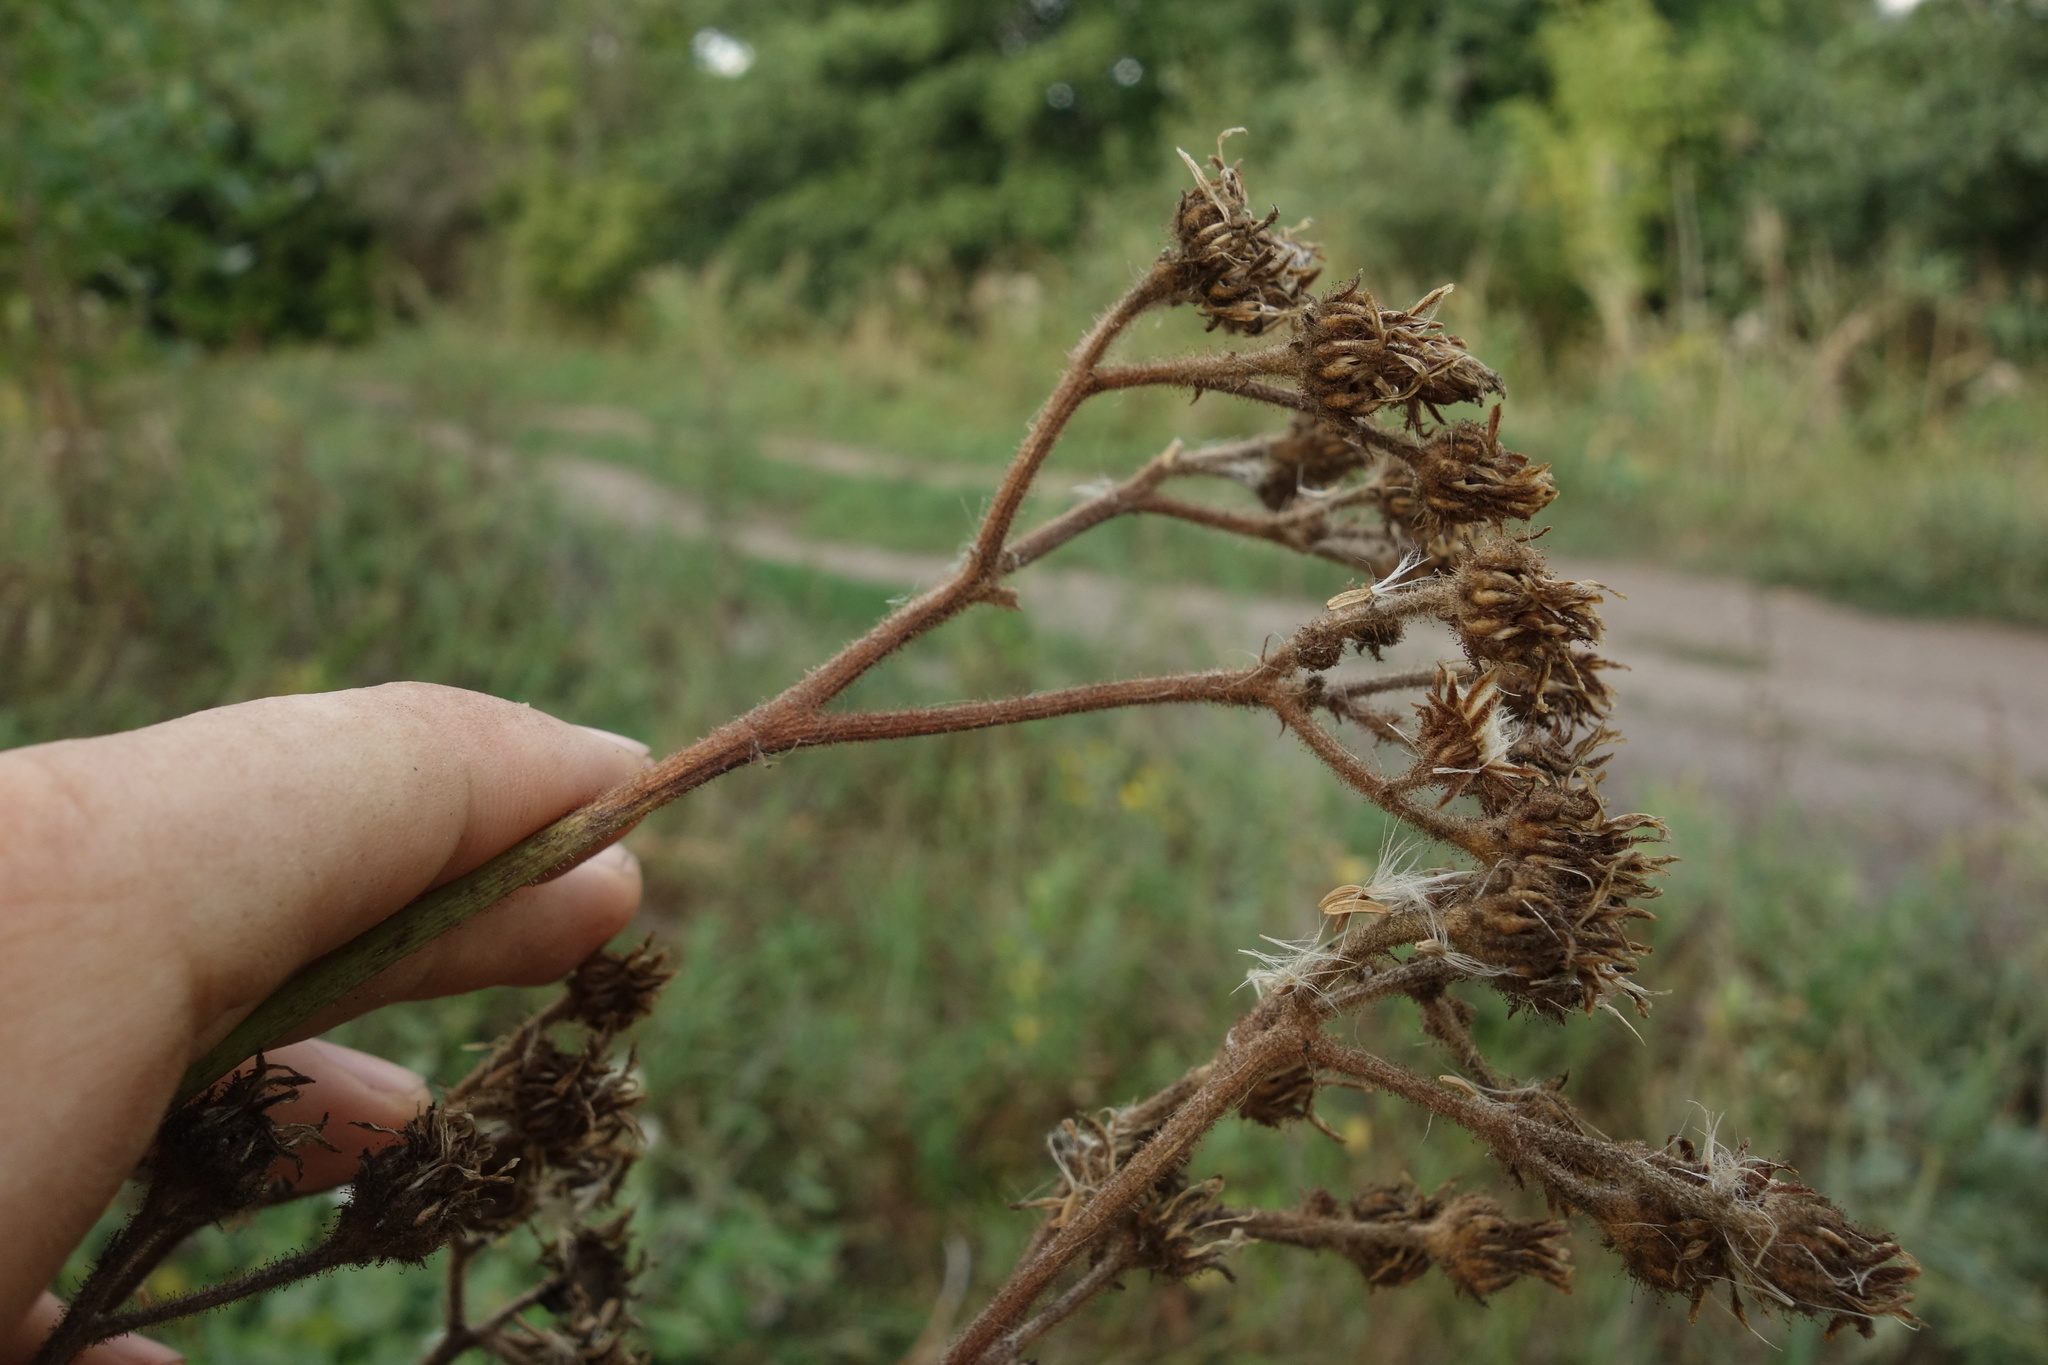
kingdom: Plantae
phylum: Tracheophyta
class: Magnoliopsida
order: Asterales
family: Asteraceae
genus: Sonchus
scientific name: Sonchus palustris
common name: Marsh sow-thistle
